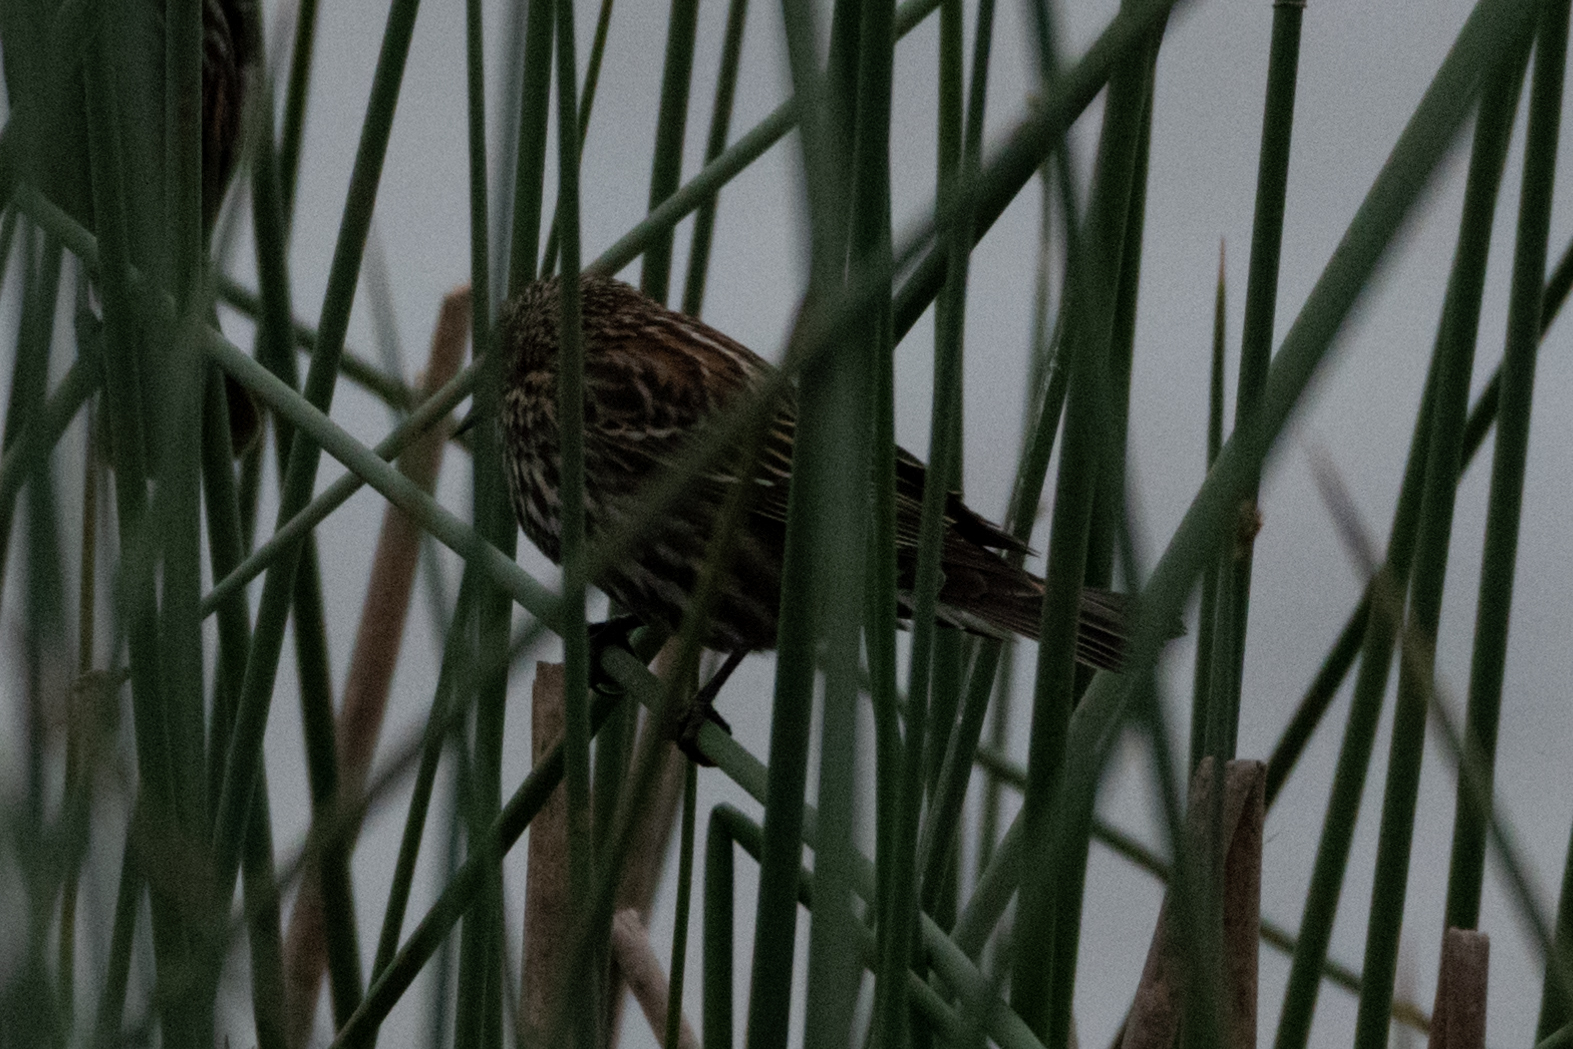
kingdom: Animalia
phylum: Chordata
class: Aves
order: Passeriformes
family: Icteridae
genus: Agelaius
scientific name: Agelaius phoeniceus
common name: Red-winged blackbird
